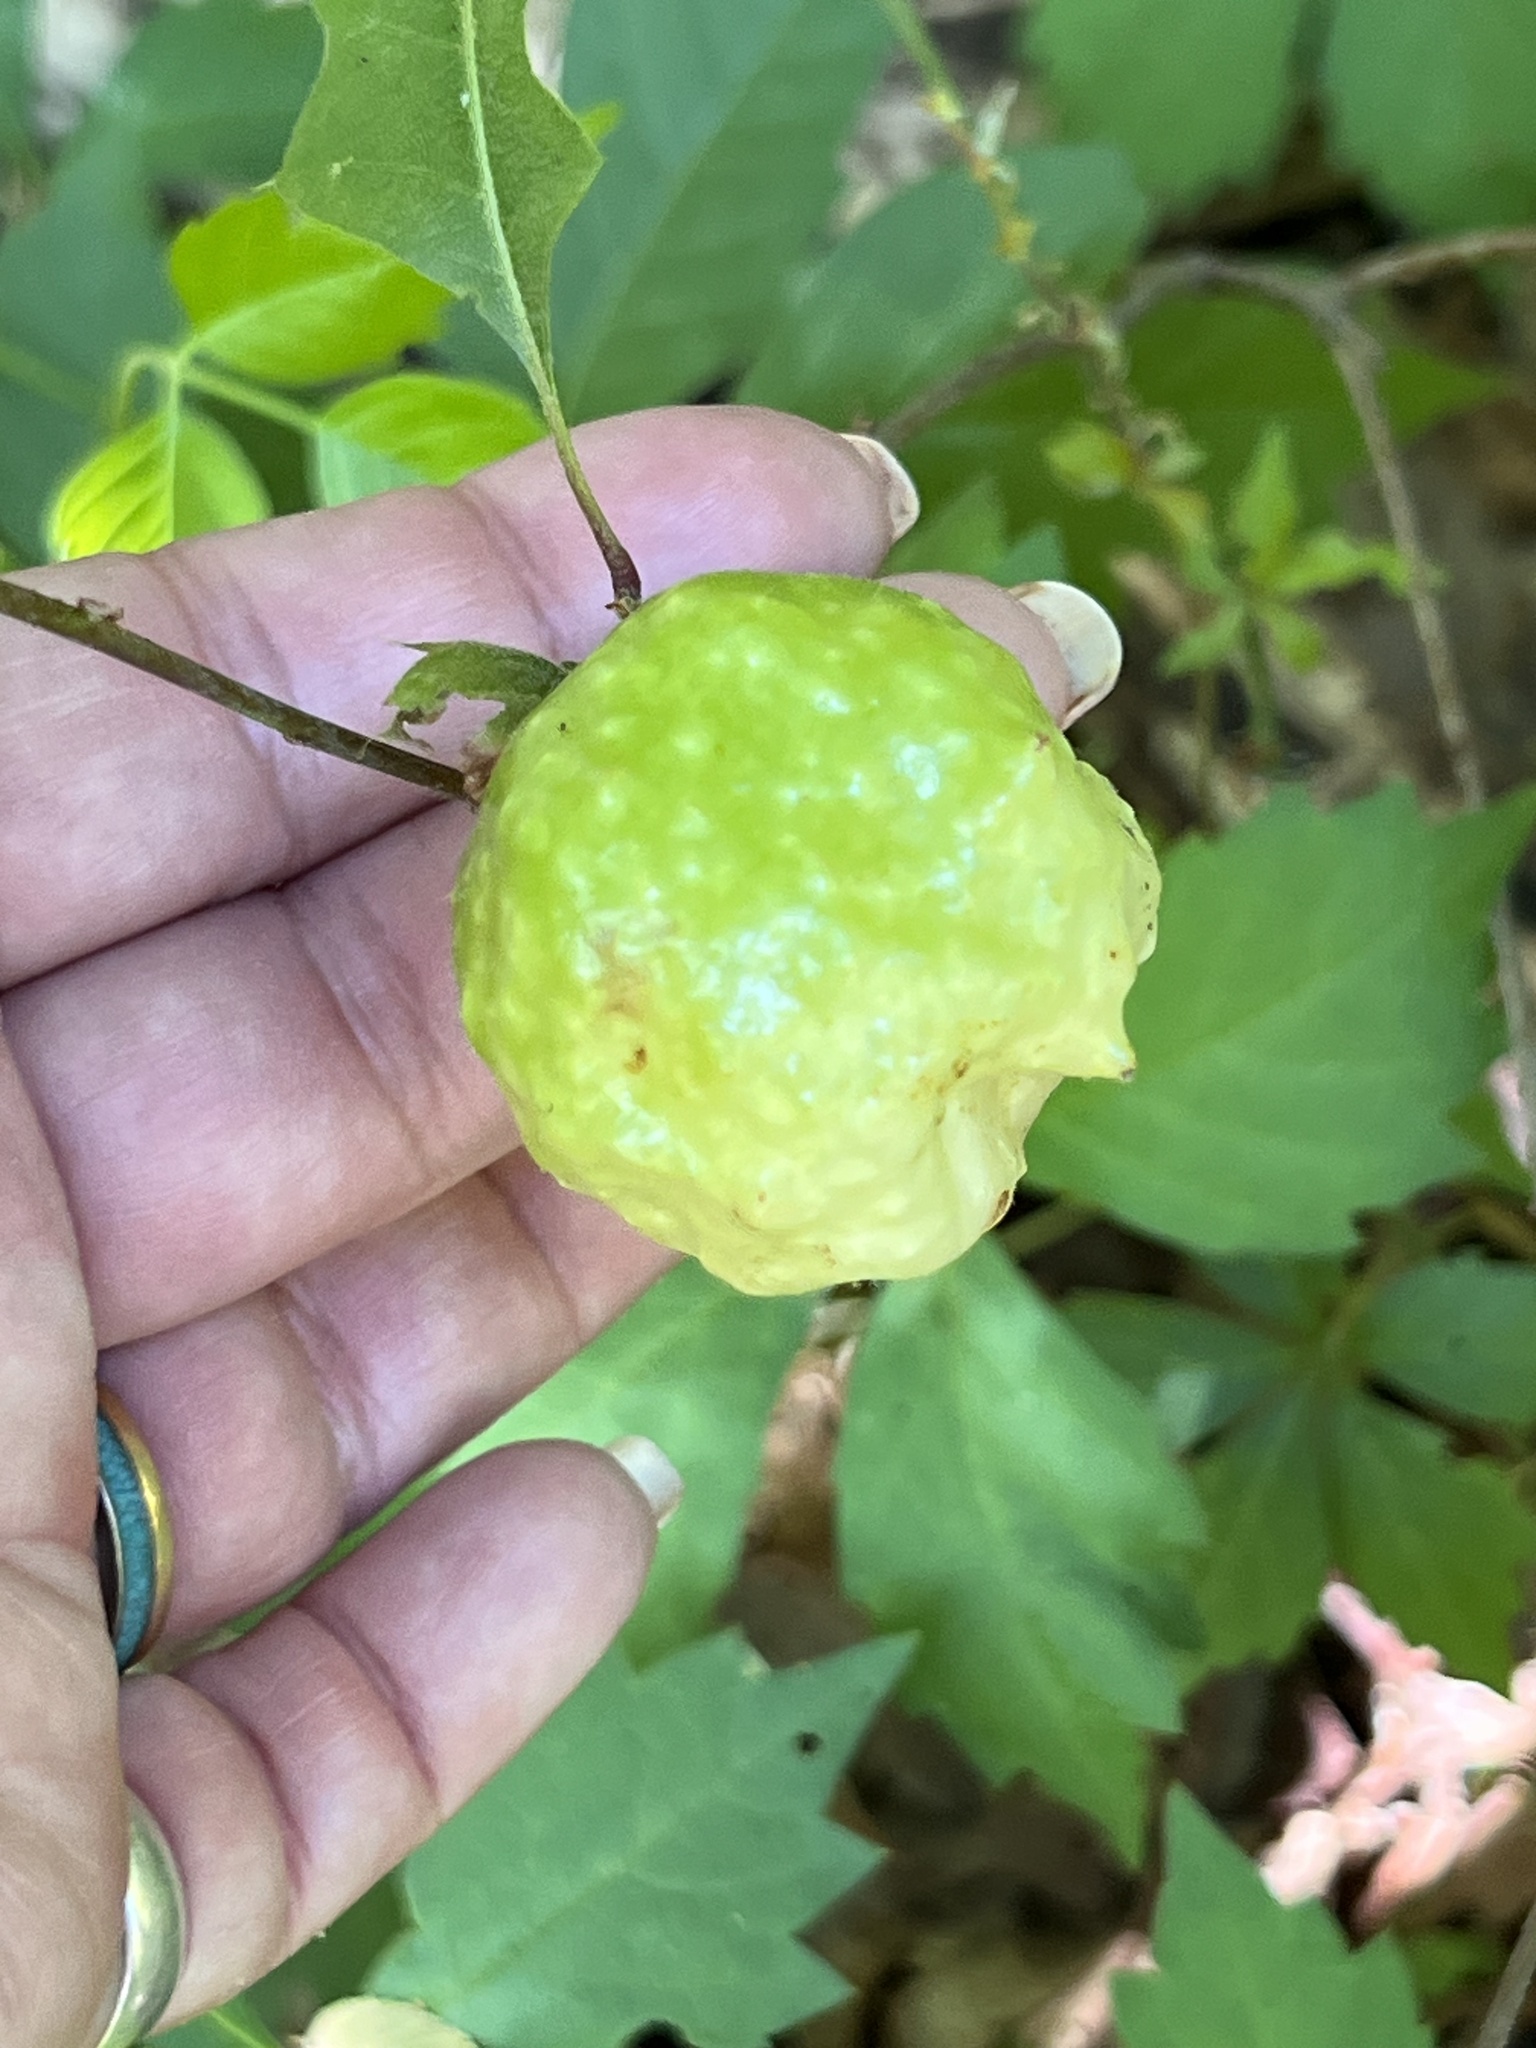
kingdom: Animalia
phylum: Arthropoda
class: Insecta
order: Hymenoptera
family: Cynipidae
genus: Amphibolips
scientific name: Amphibolips
